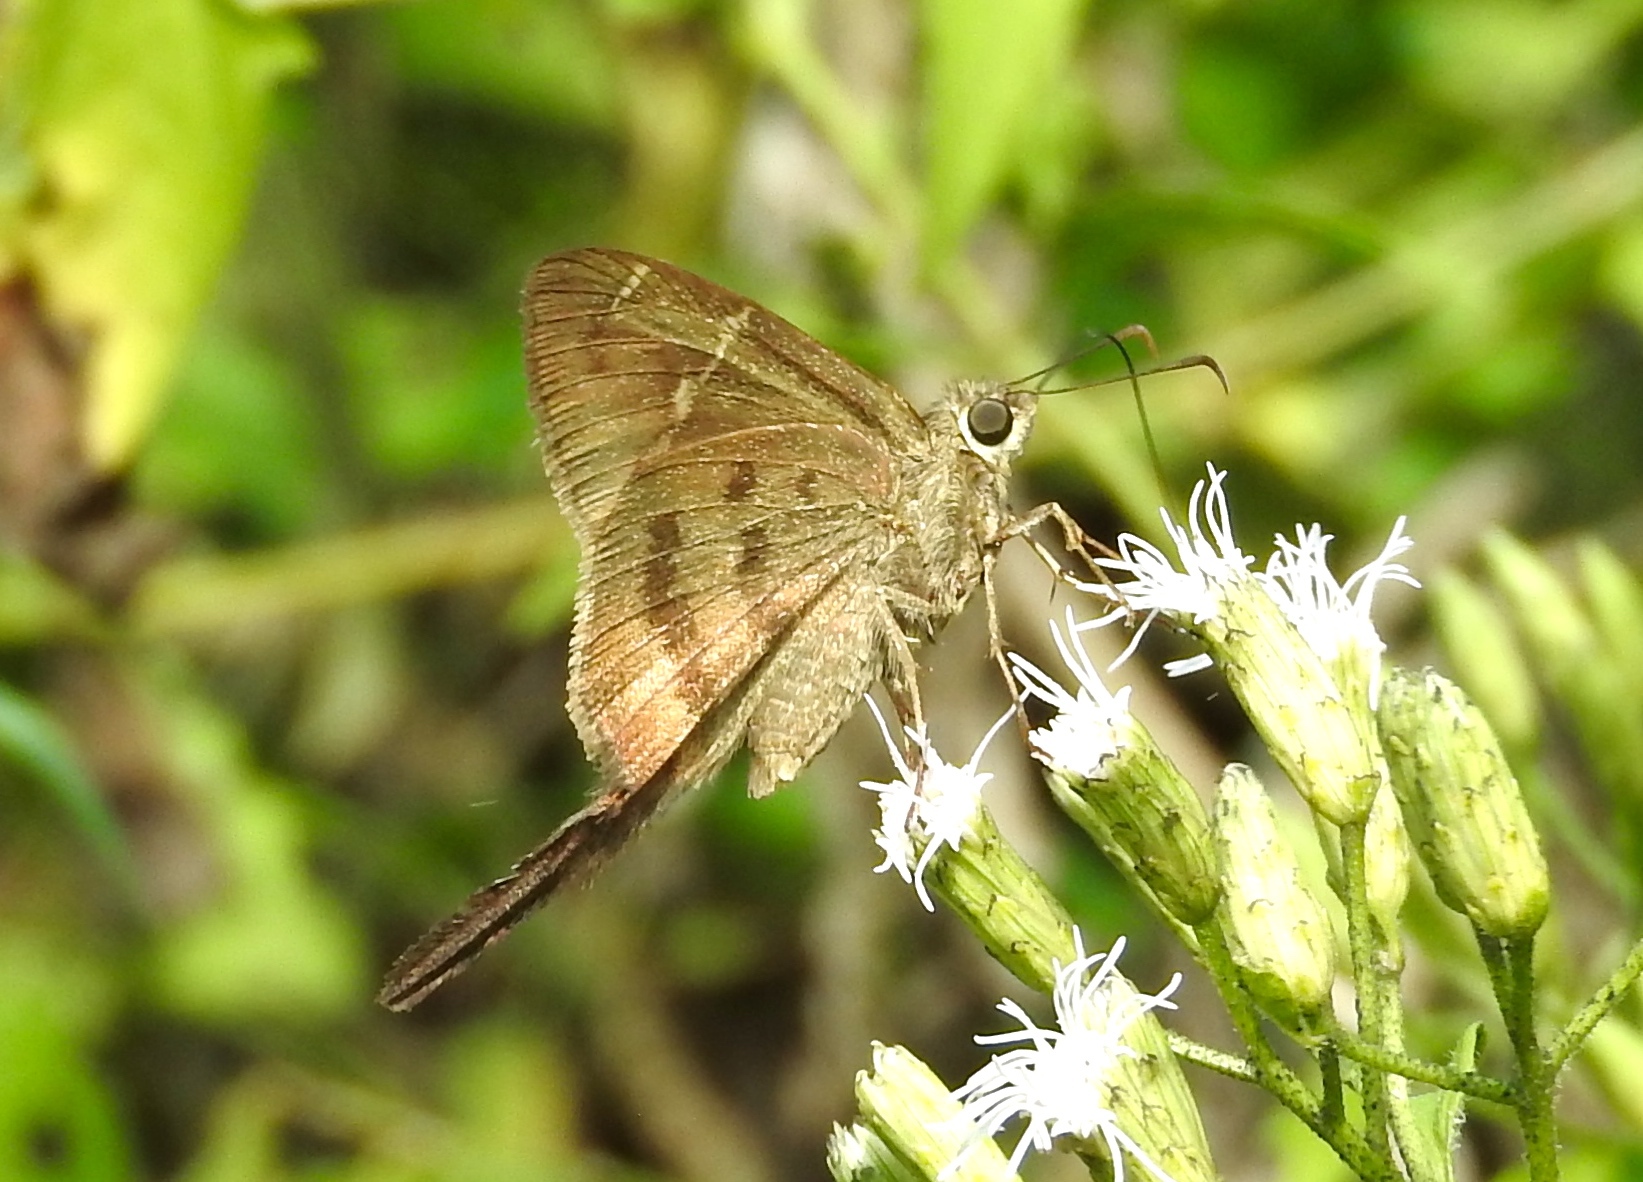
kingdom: Animalia
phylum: Arthropoda
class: Insecta
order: Lepidoptera
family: Hesperiidae
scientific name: Hesperiidae
